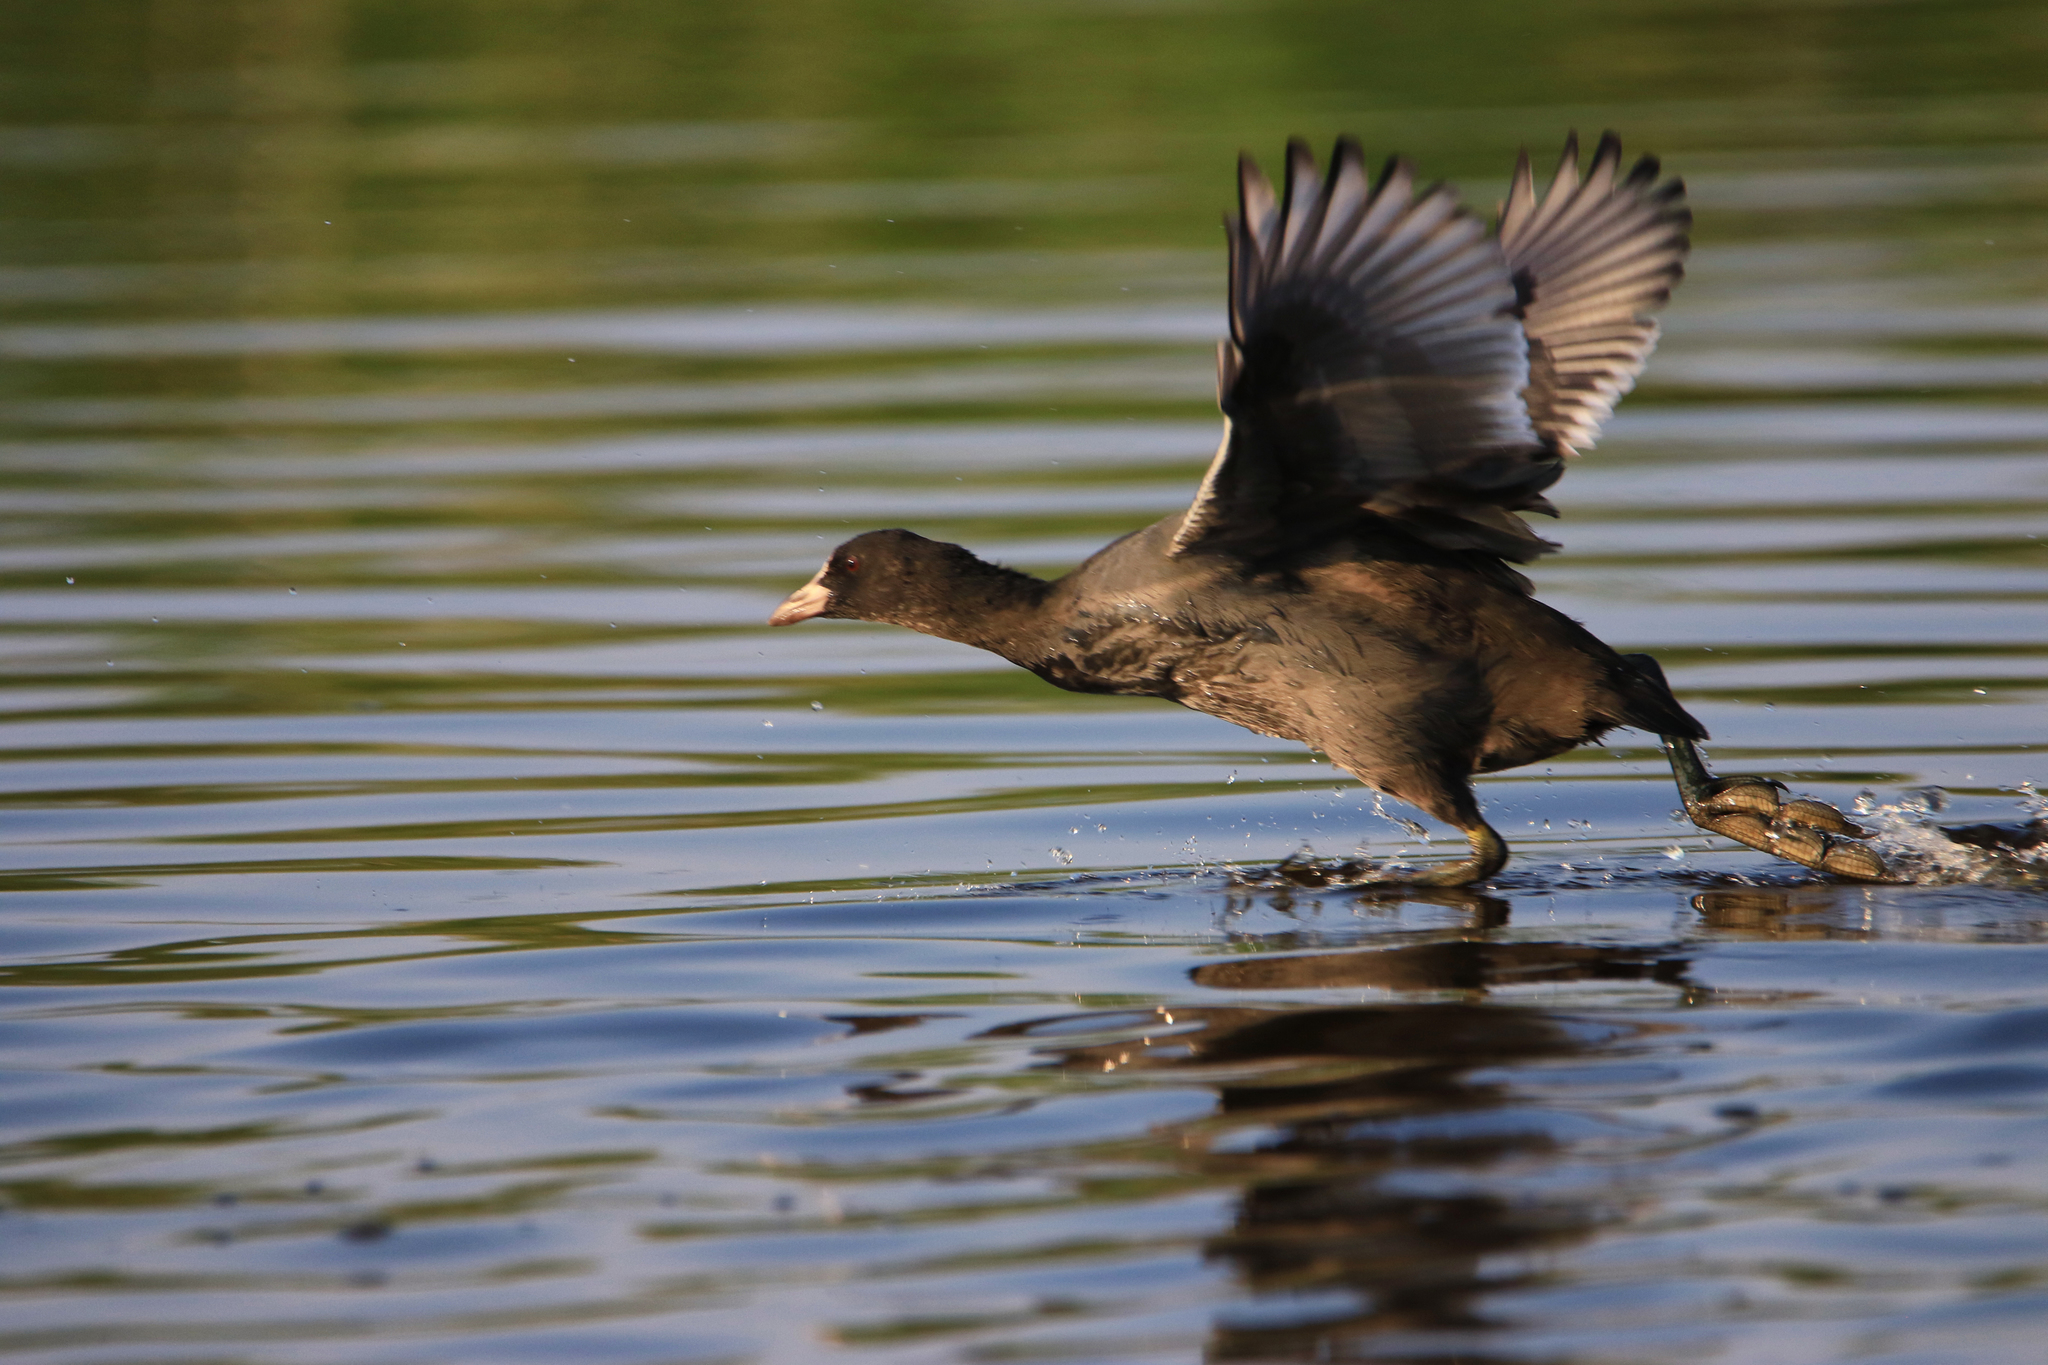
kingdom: Animalia
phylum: Chordata
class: Aves
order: Gruiformes
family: Rallidae
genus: Fulica
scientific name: Fulica atra
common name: Eurasian coot
